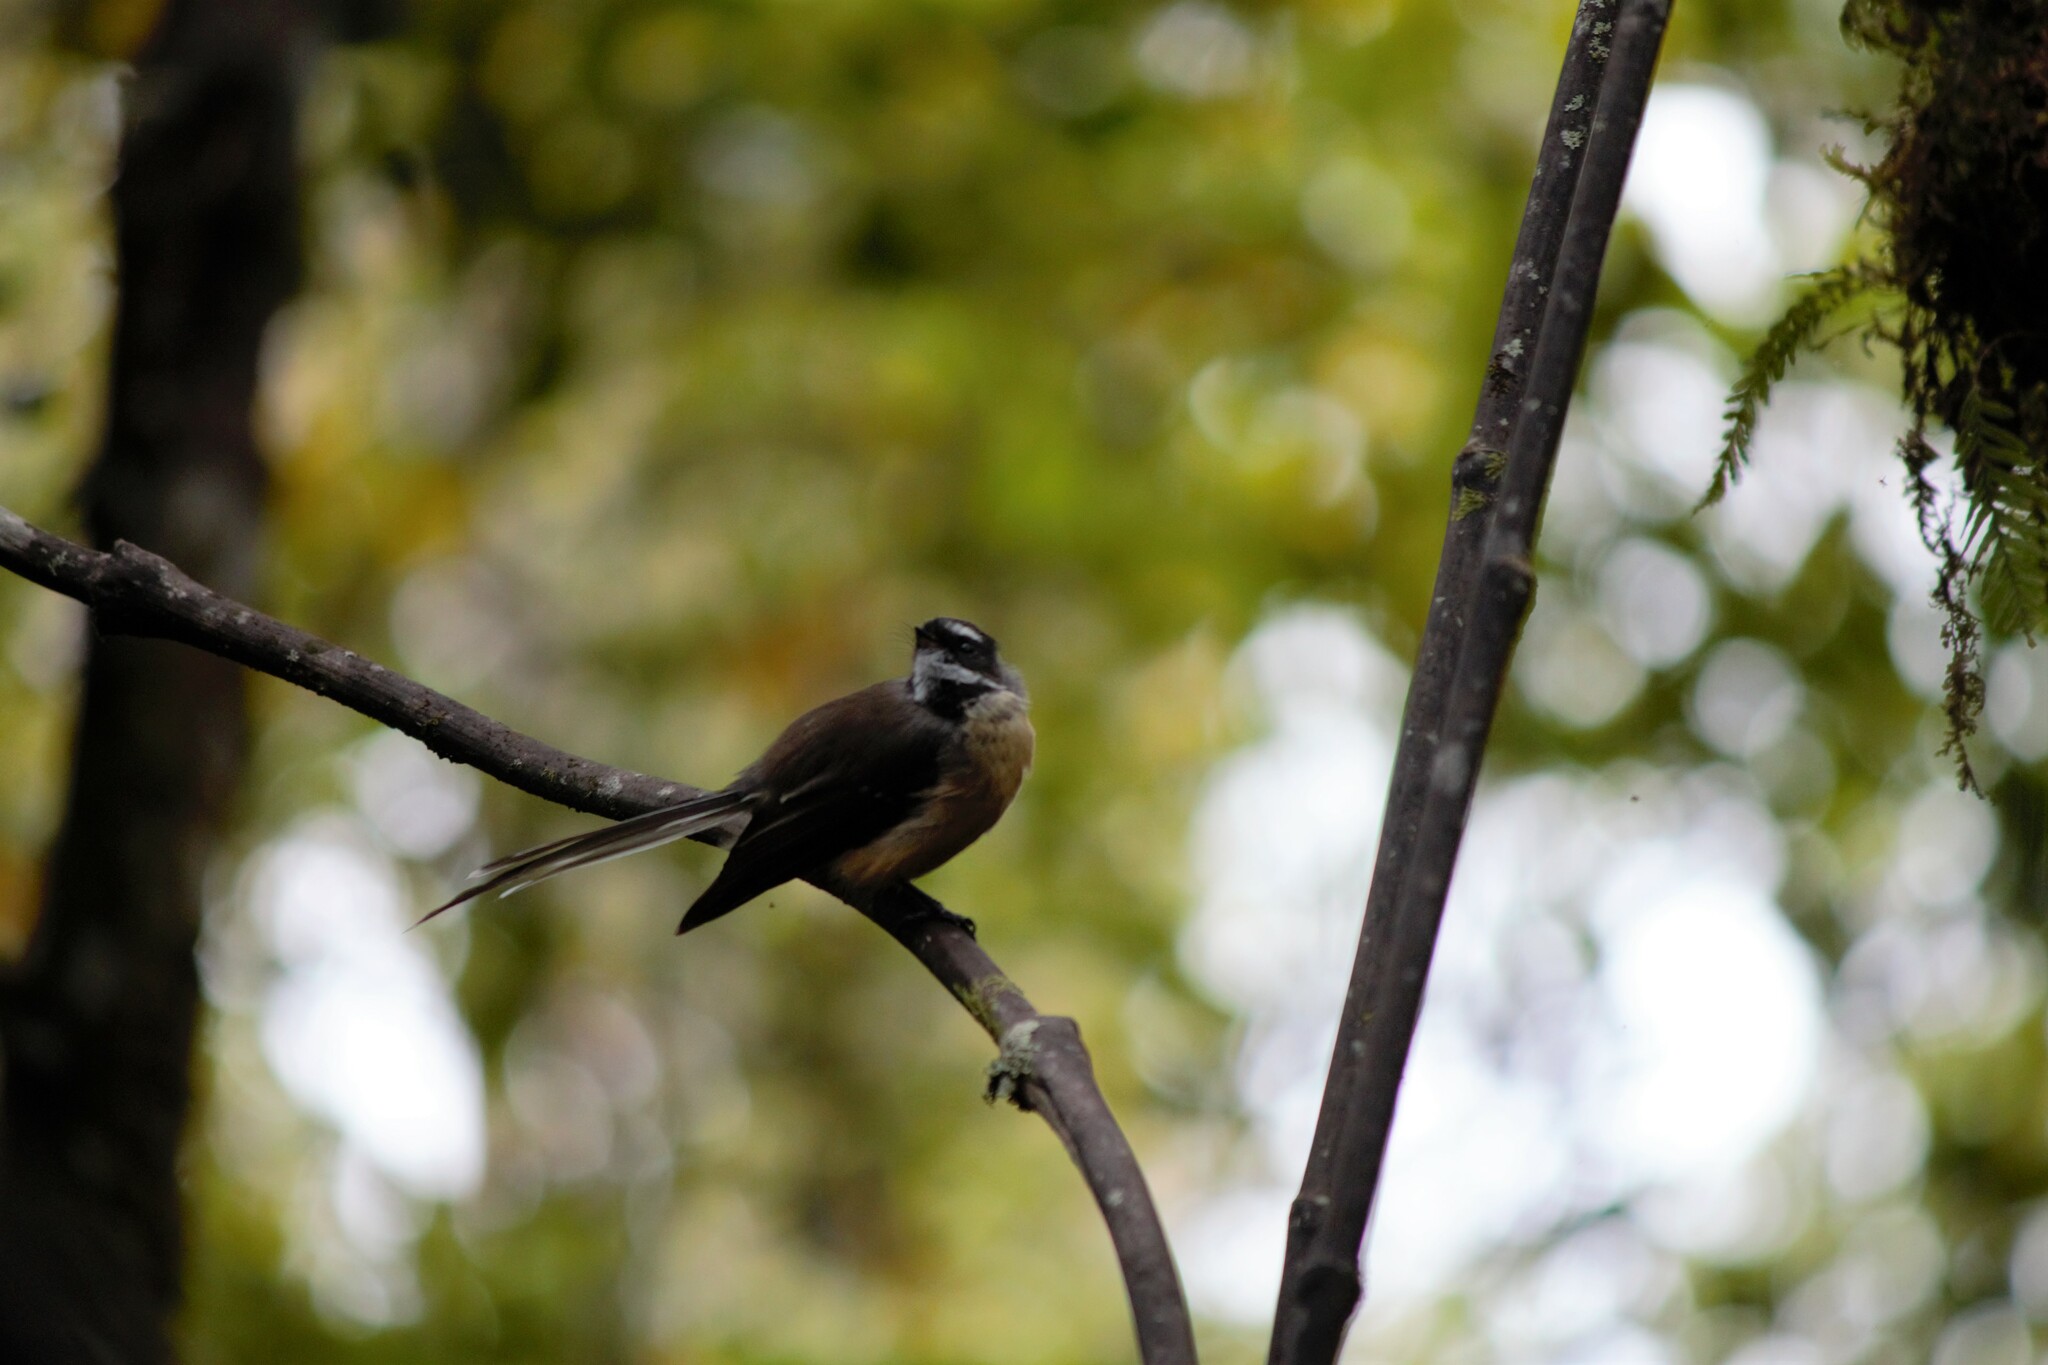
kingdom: Animalia
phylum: Chordata
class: Aves
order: Passeriformes
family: Rhipiduridae
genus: Rhipidura
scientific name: Rhipidura fuliginosa
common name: New zealand fantail
